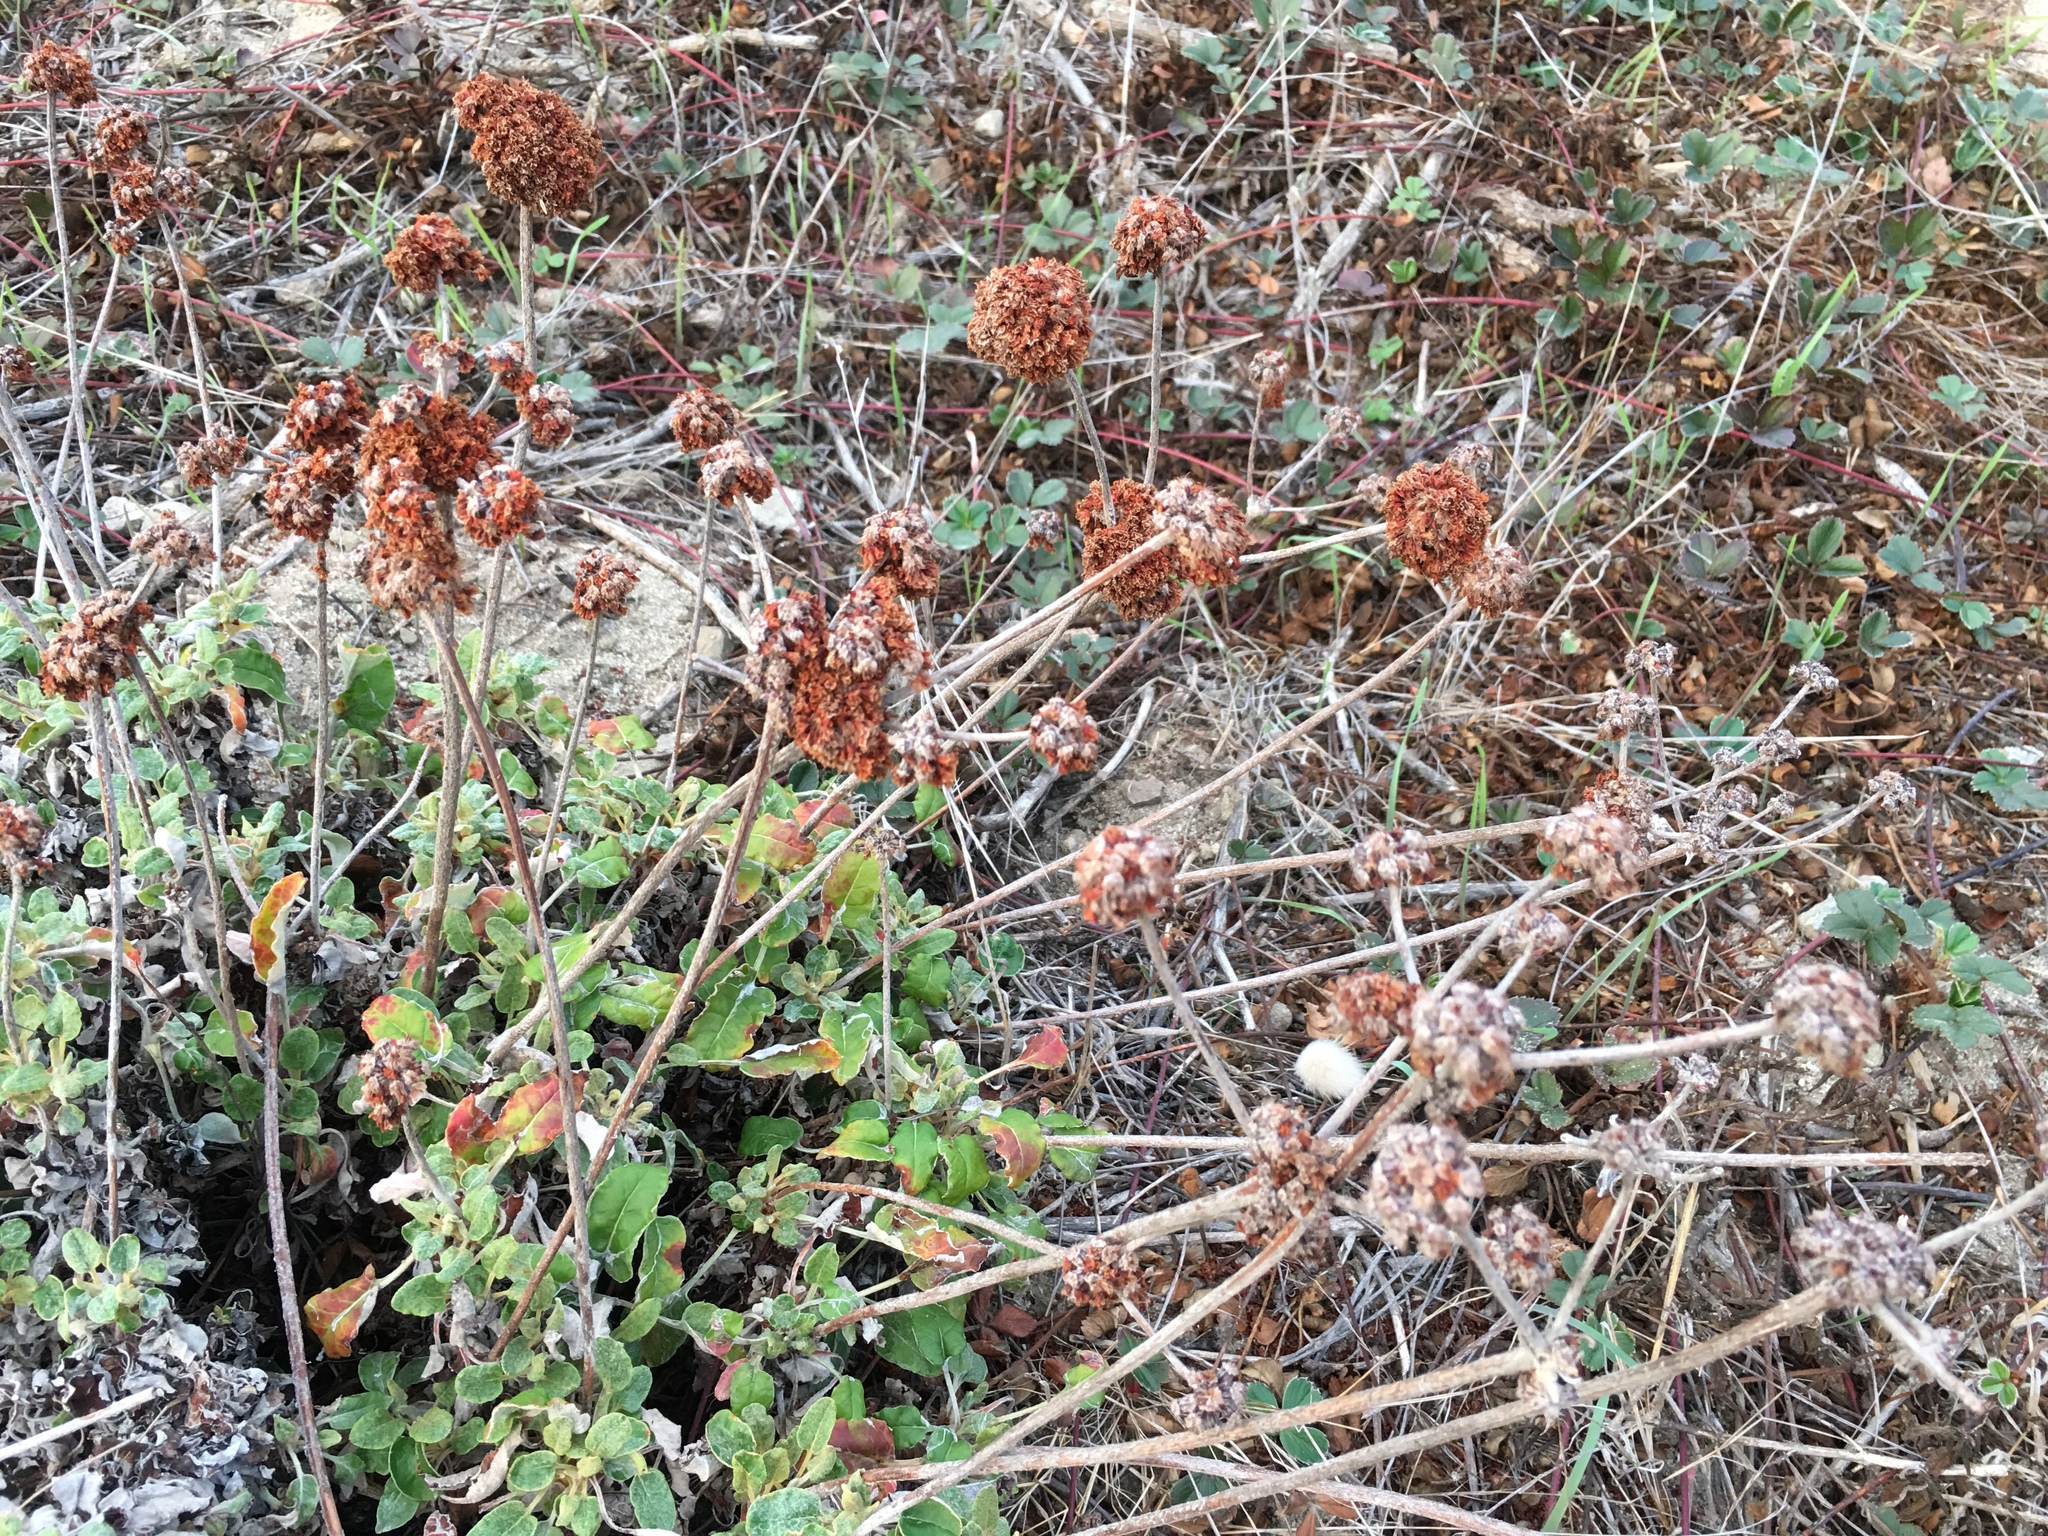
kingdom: Plantae
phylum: Tracheophyta
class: Magnoliopsida
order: Caryophyllales
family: Polygonaceae
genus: Eriogonum
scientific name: Eriogonum latifolium
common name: Seaside wild buckwheat
